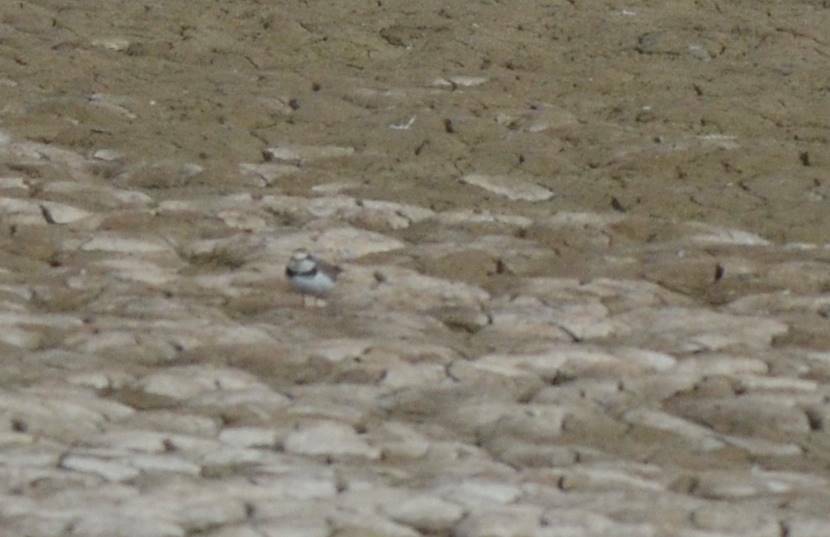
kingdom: Animalia
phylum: Chordata
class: Aves
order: Charadriiformes
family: Charadriidae
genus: Charadrius
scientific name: Charadrius dubius
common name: Little ringed plover
